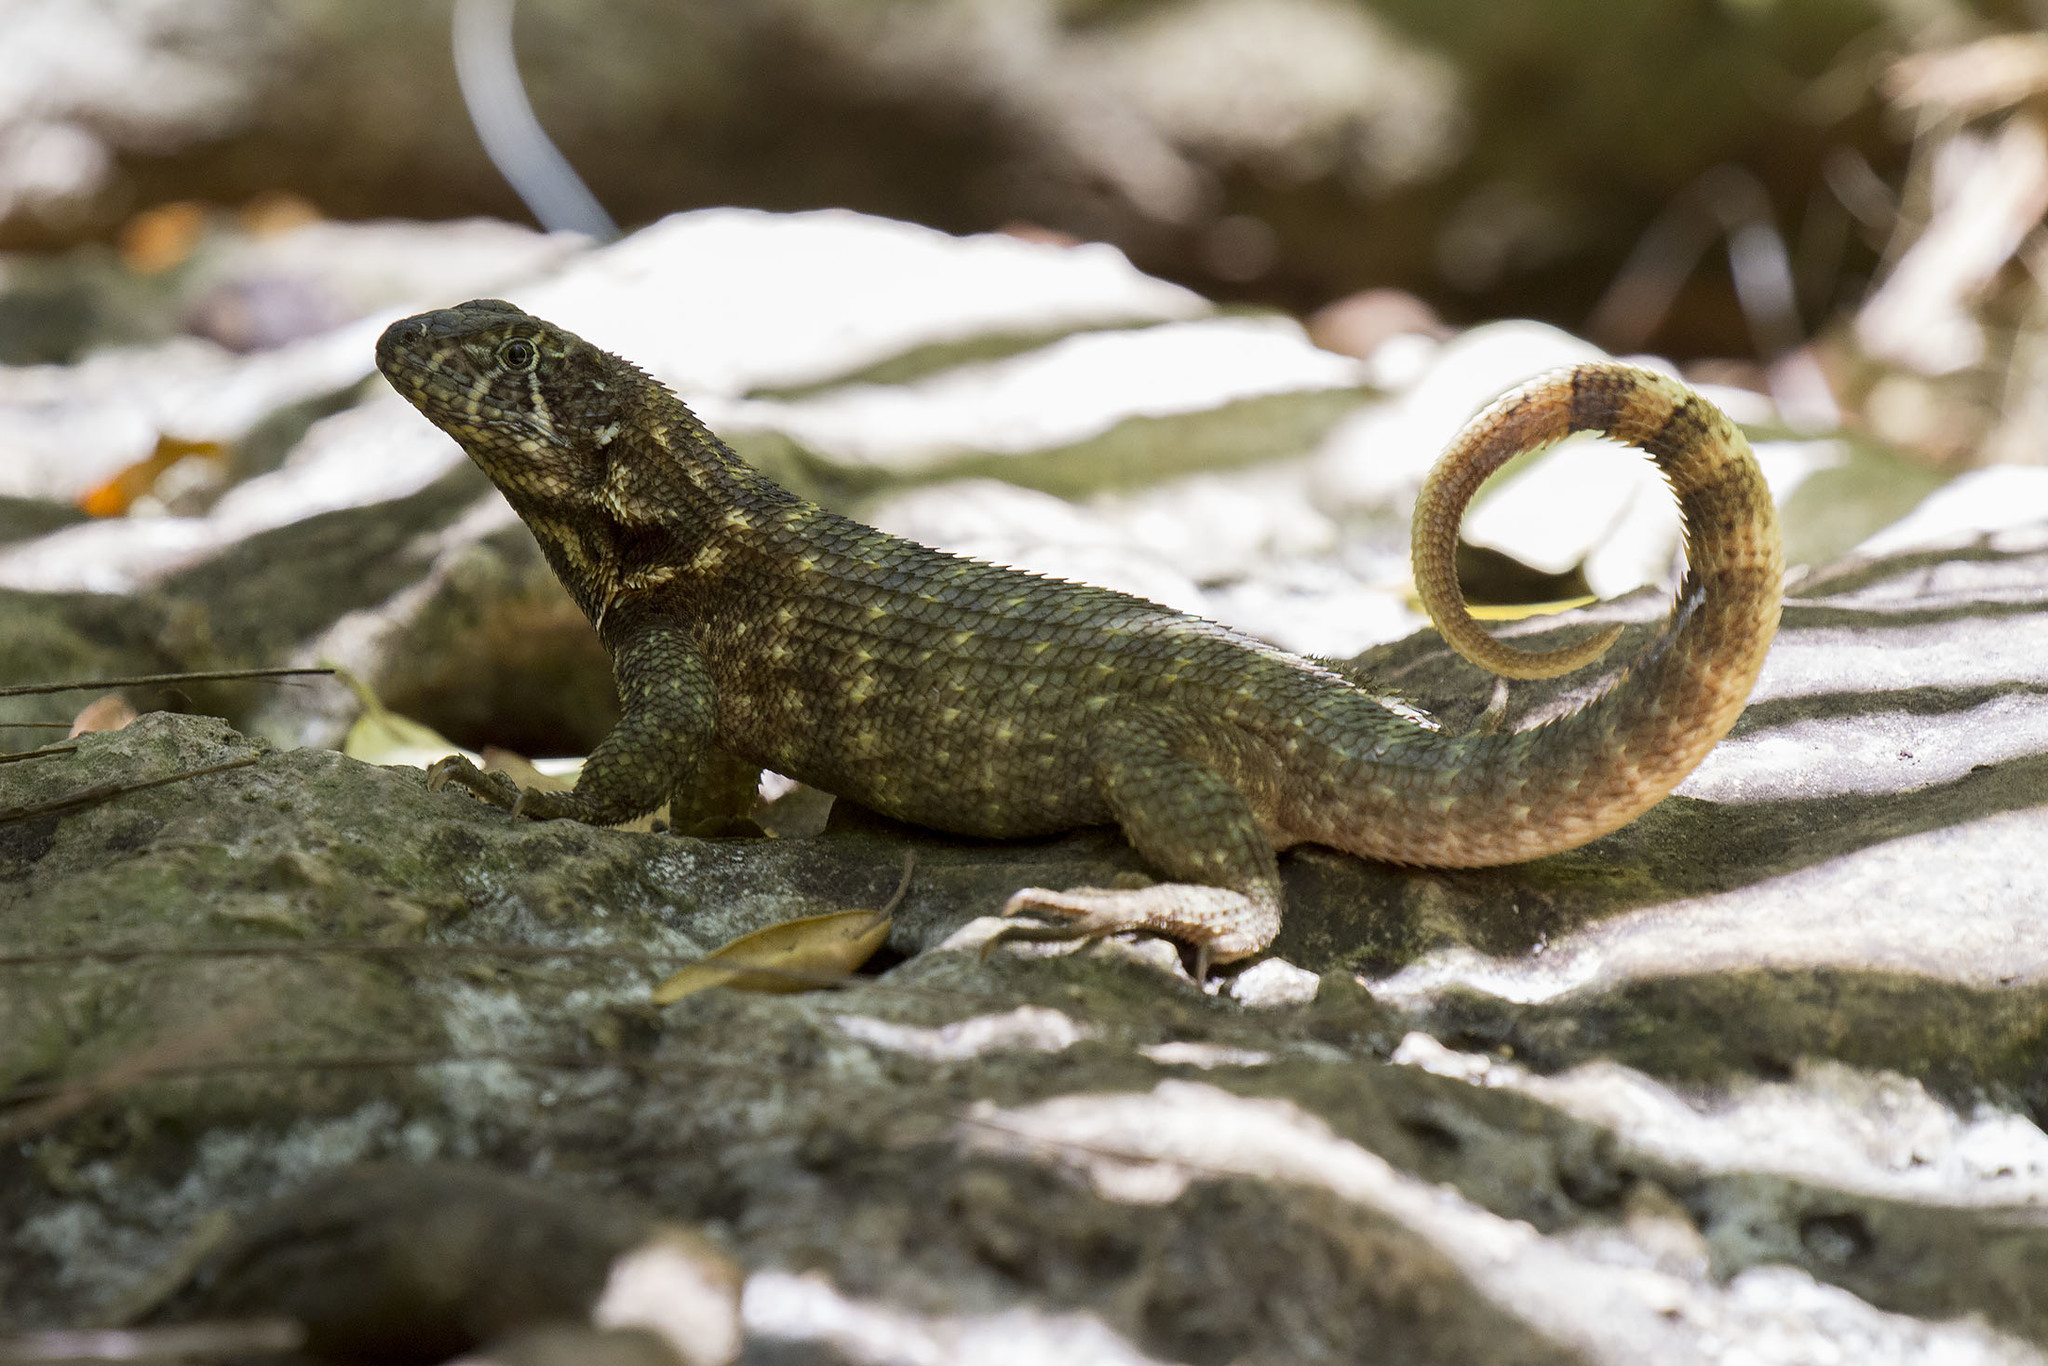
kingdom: Animalia
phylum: Chordata
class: Squamata
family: Leiocephalidae
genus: Leiocephalus
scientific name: Leiocephalus carinatus
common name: Northern curly-tailed lizard
